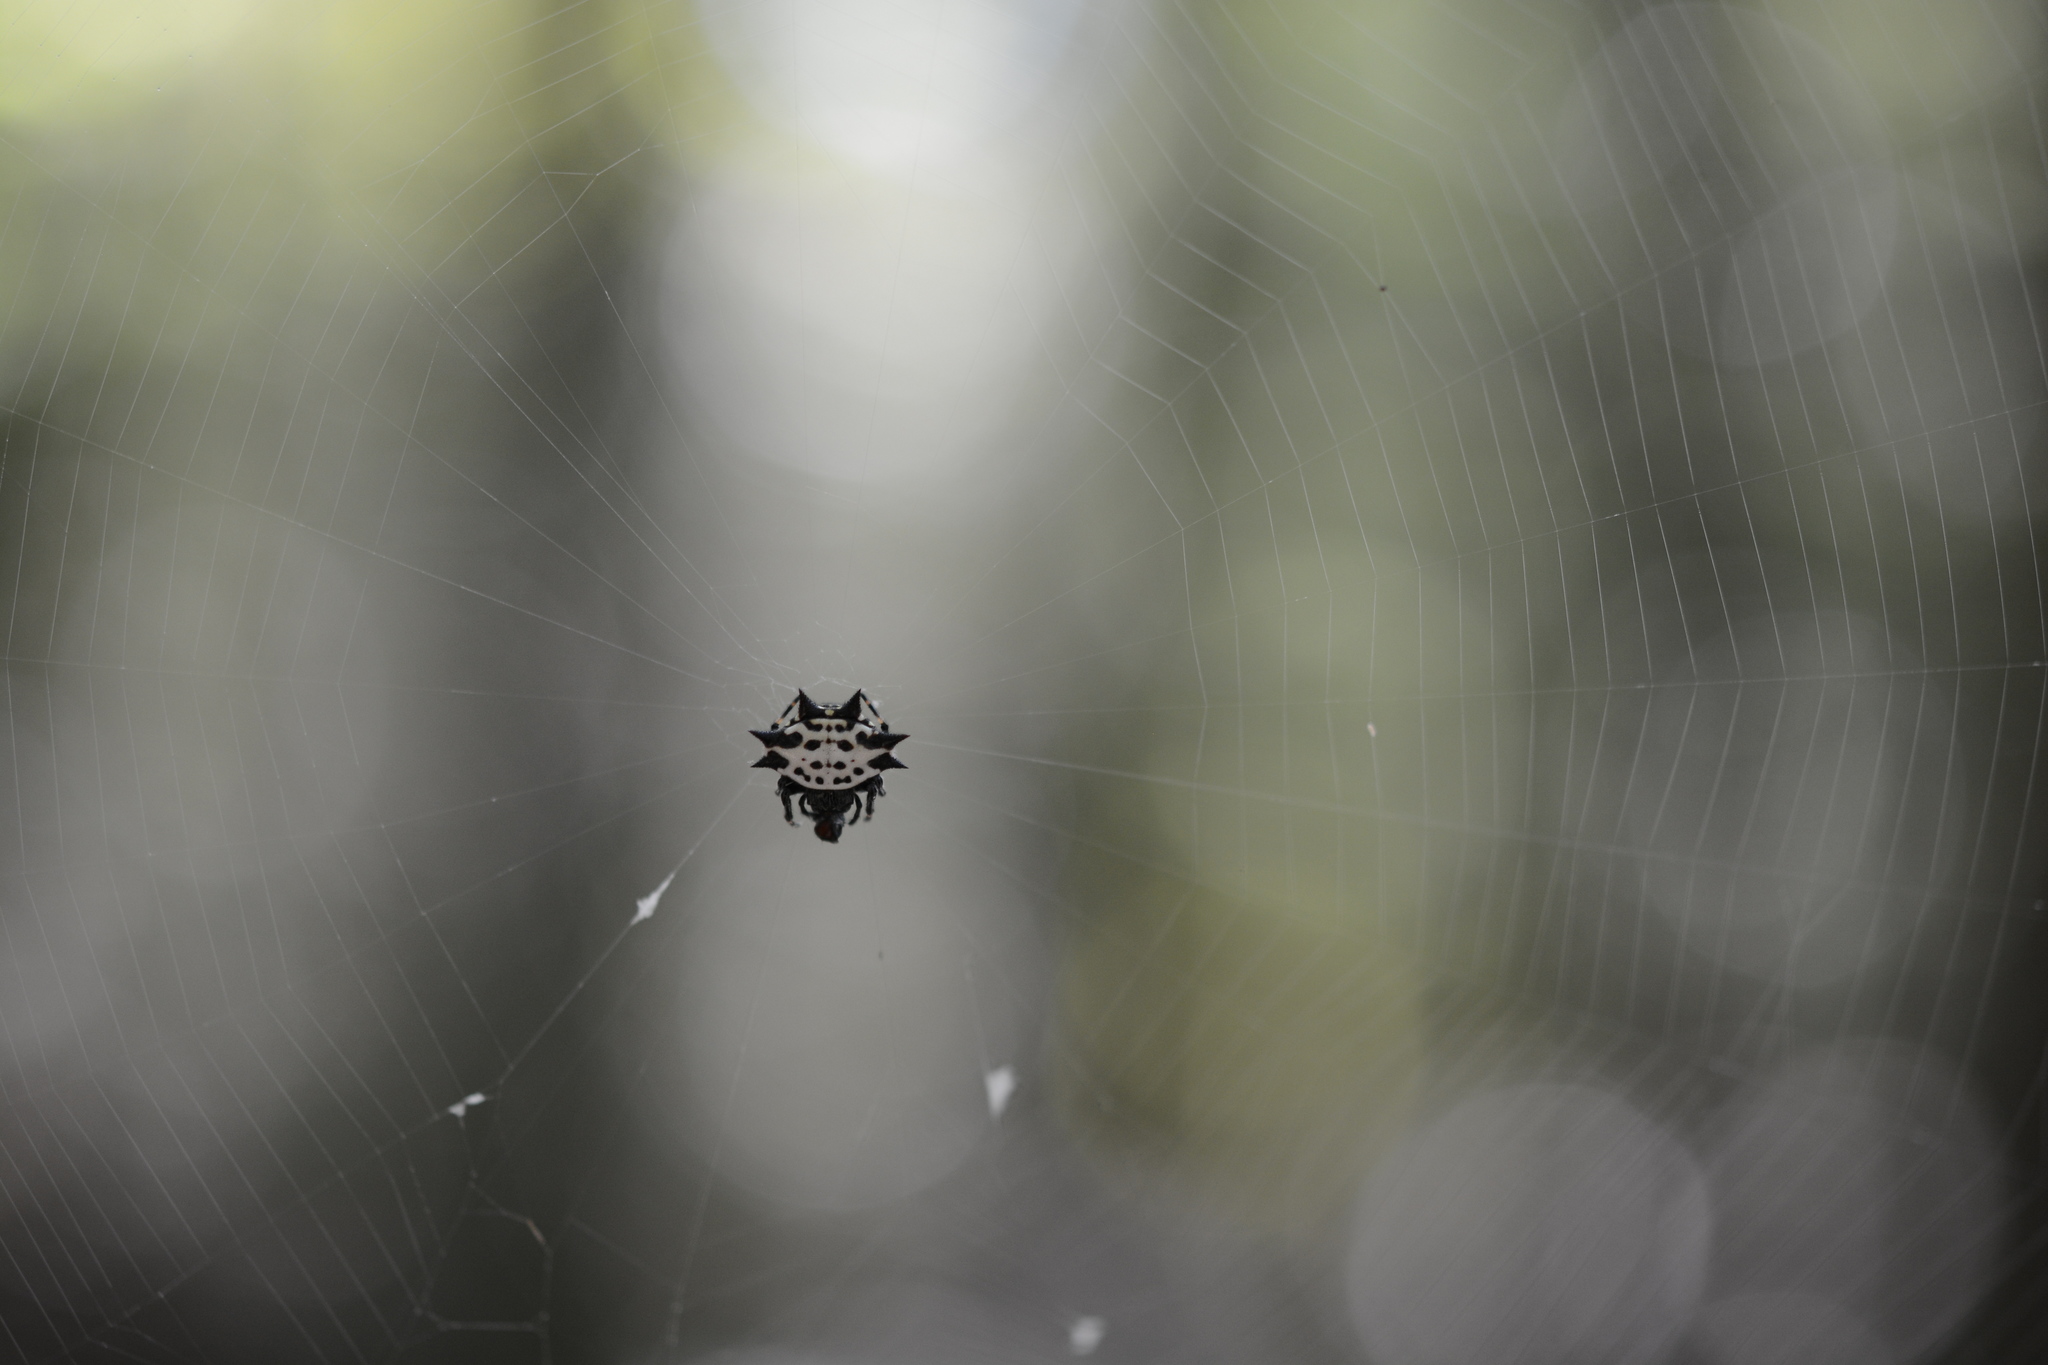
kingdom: Animalia
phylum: Arthropoda
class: Arachnida
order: Araneae
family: Araneidae
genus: Gasteracantha
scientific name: Gasteracantha cancriformis
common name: Orb weavers
